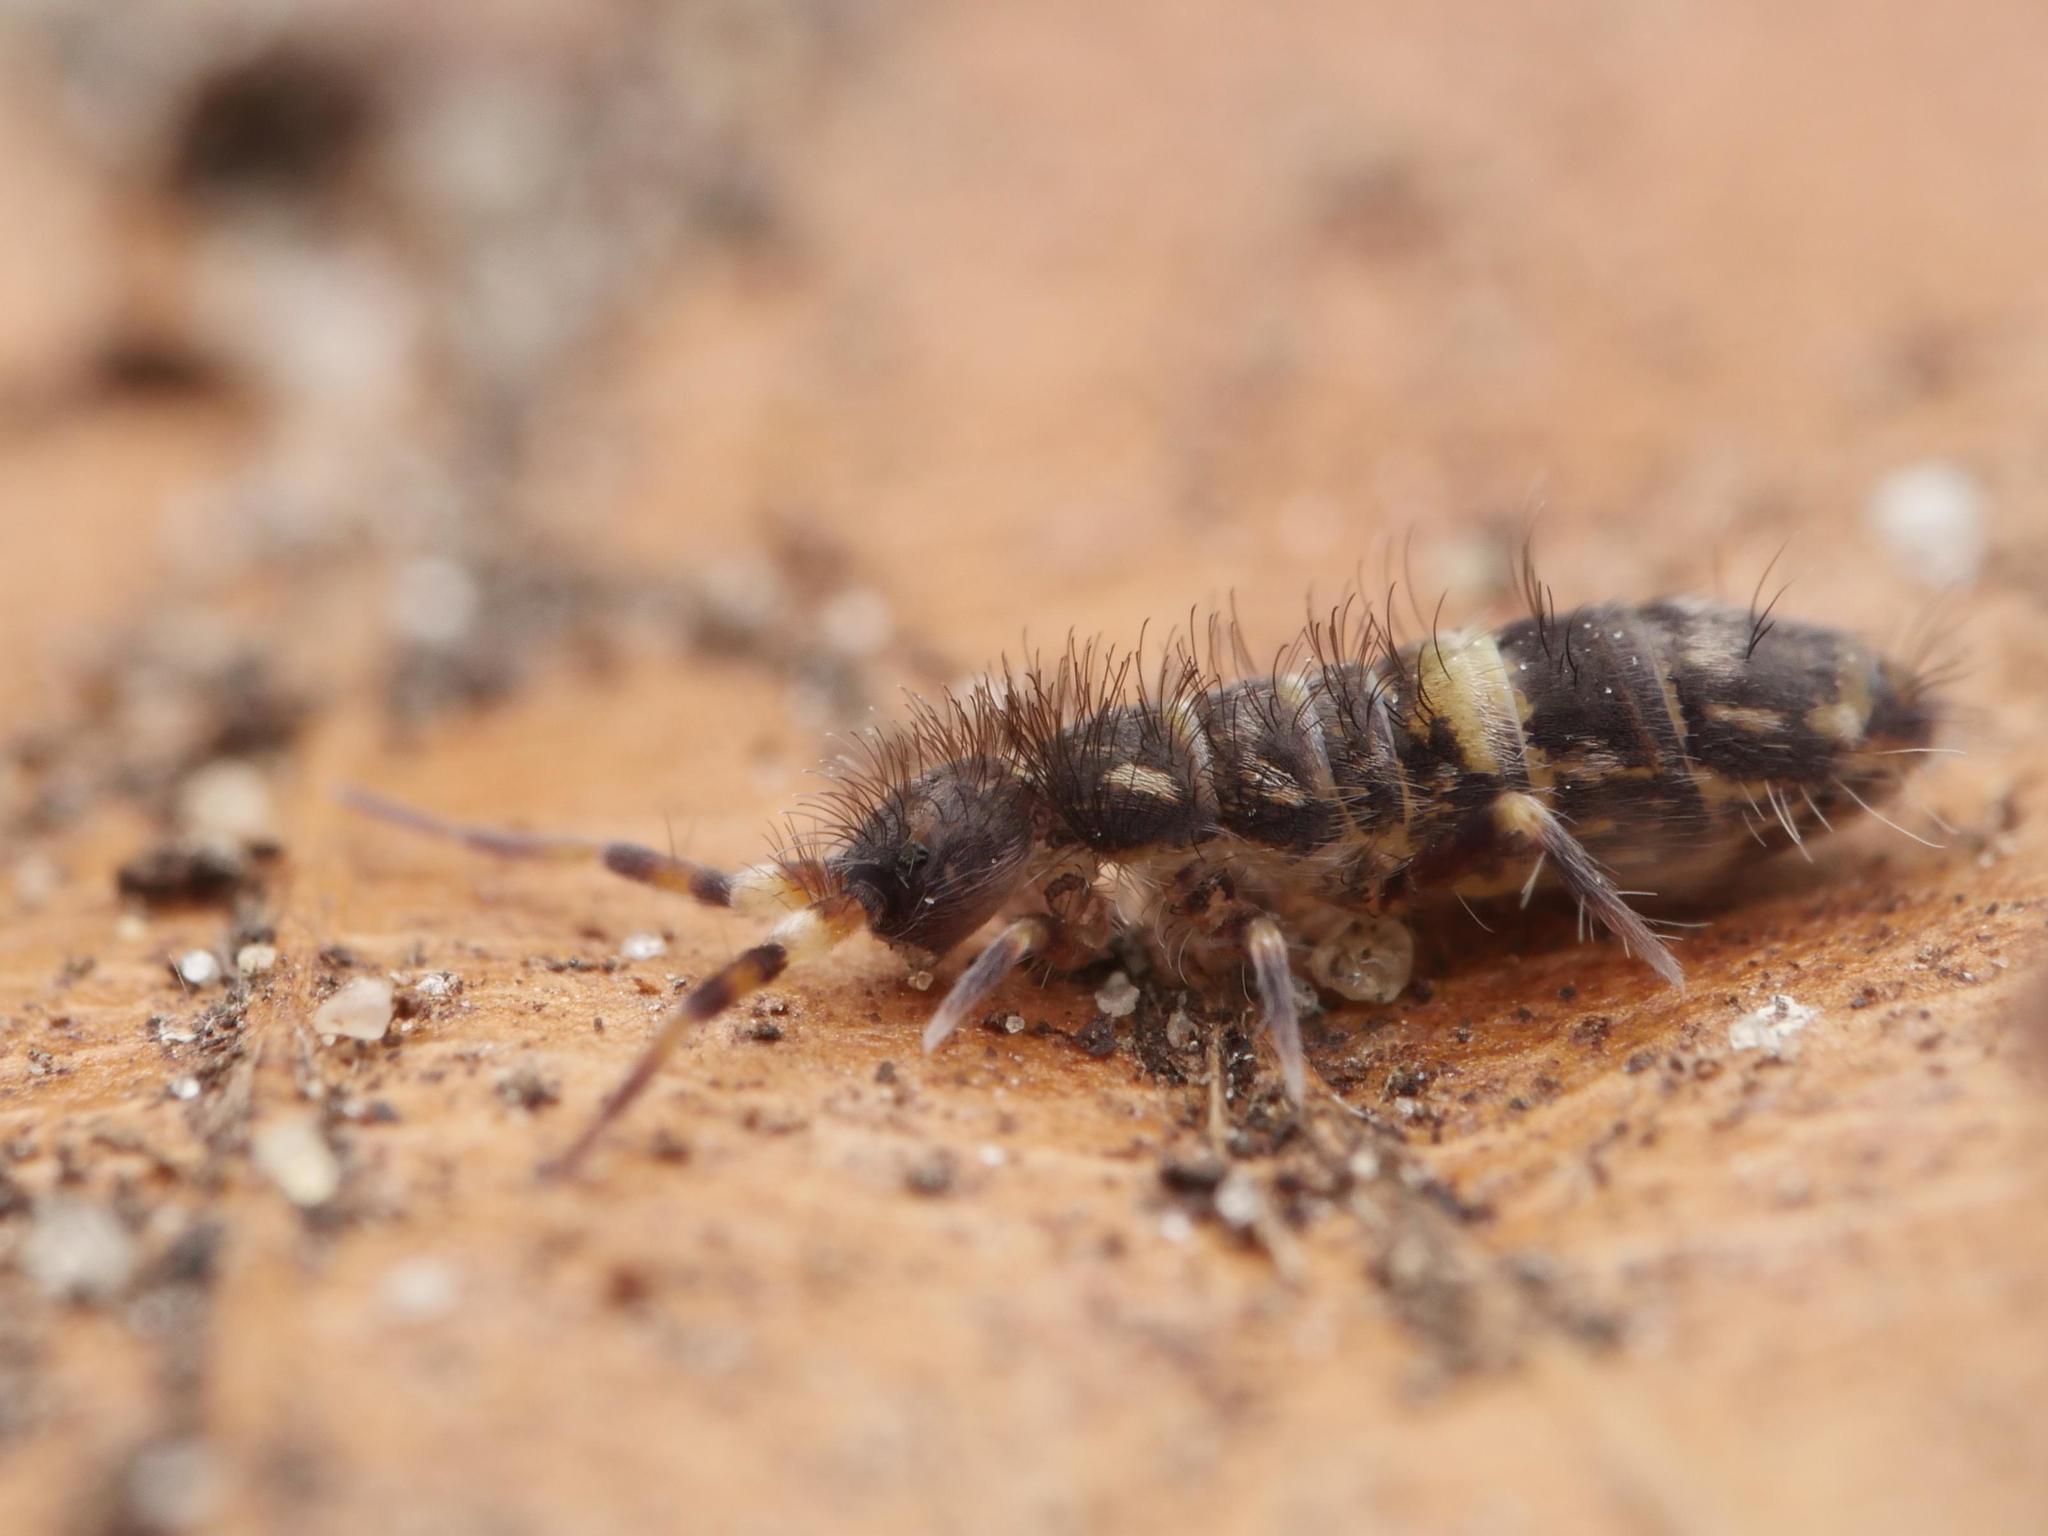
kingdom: Animalia
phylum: Arthropoda
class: Collembola
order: Entomobryomorpha
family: Orchesellidae
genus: Orchesella
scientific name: Orchesella cincta
